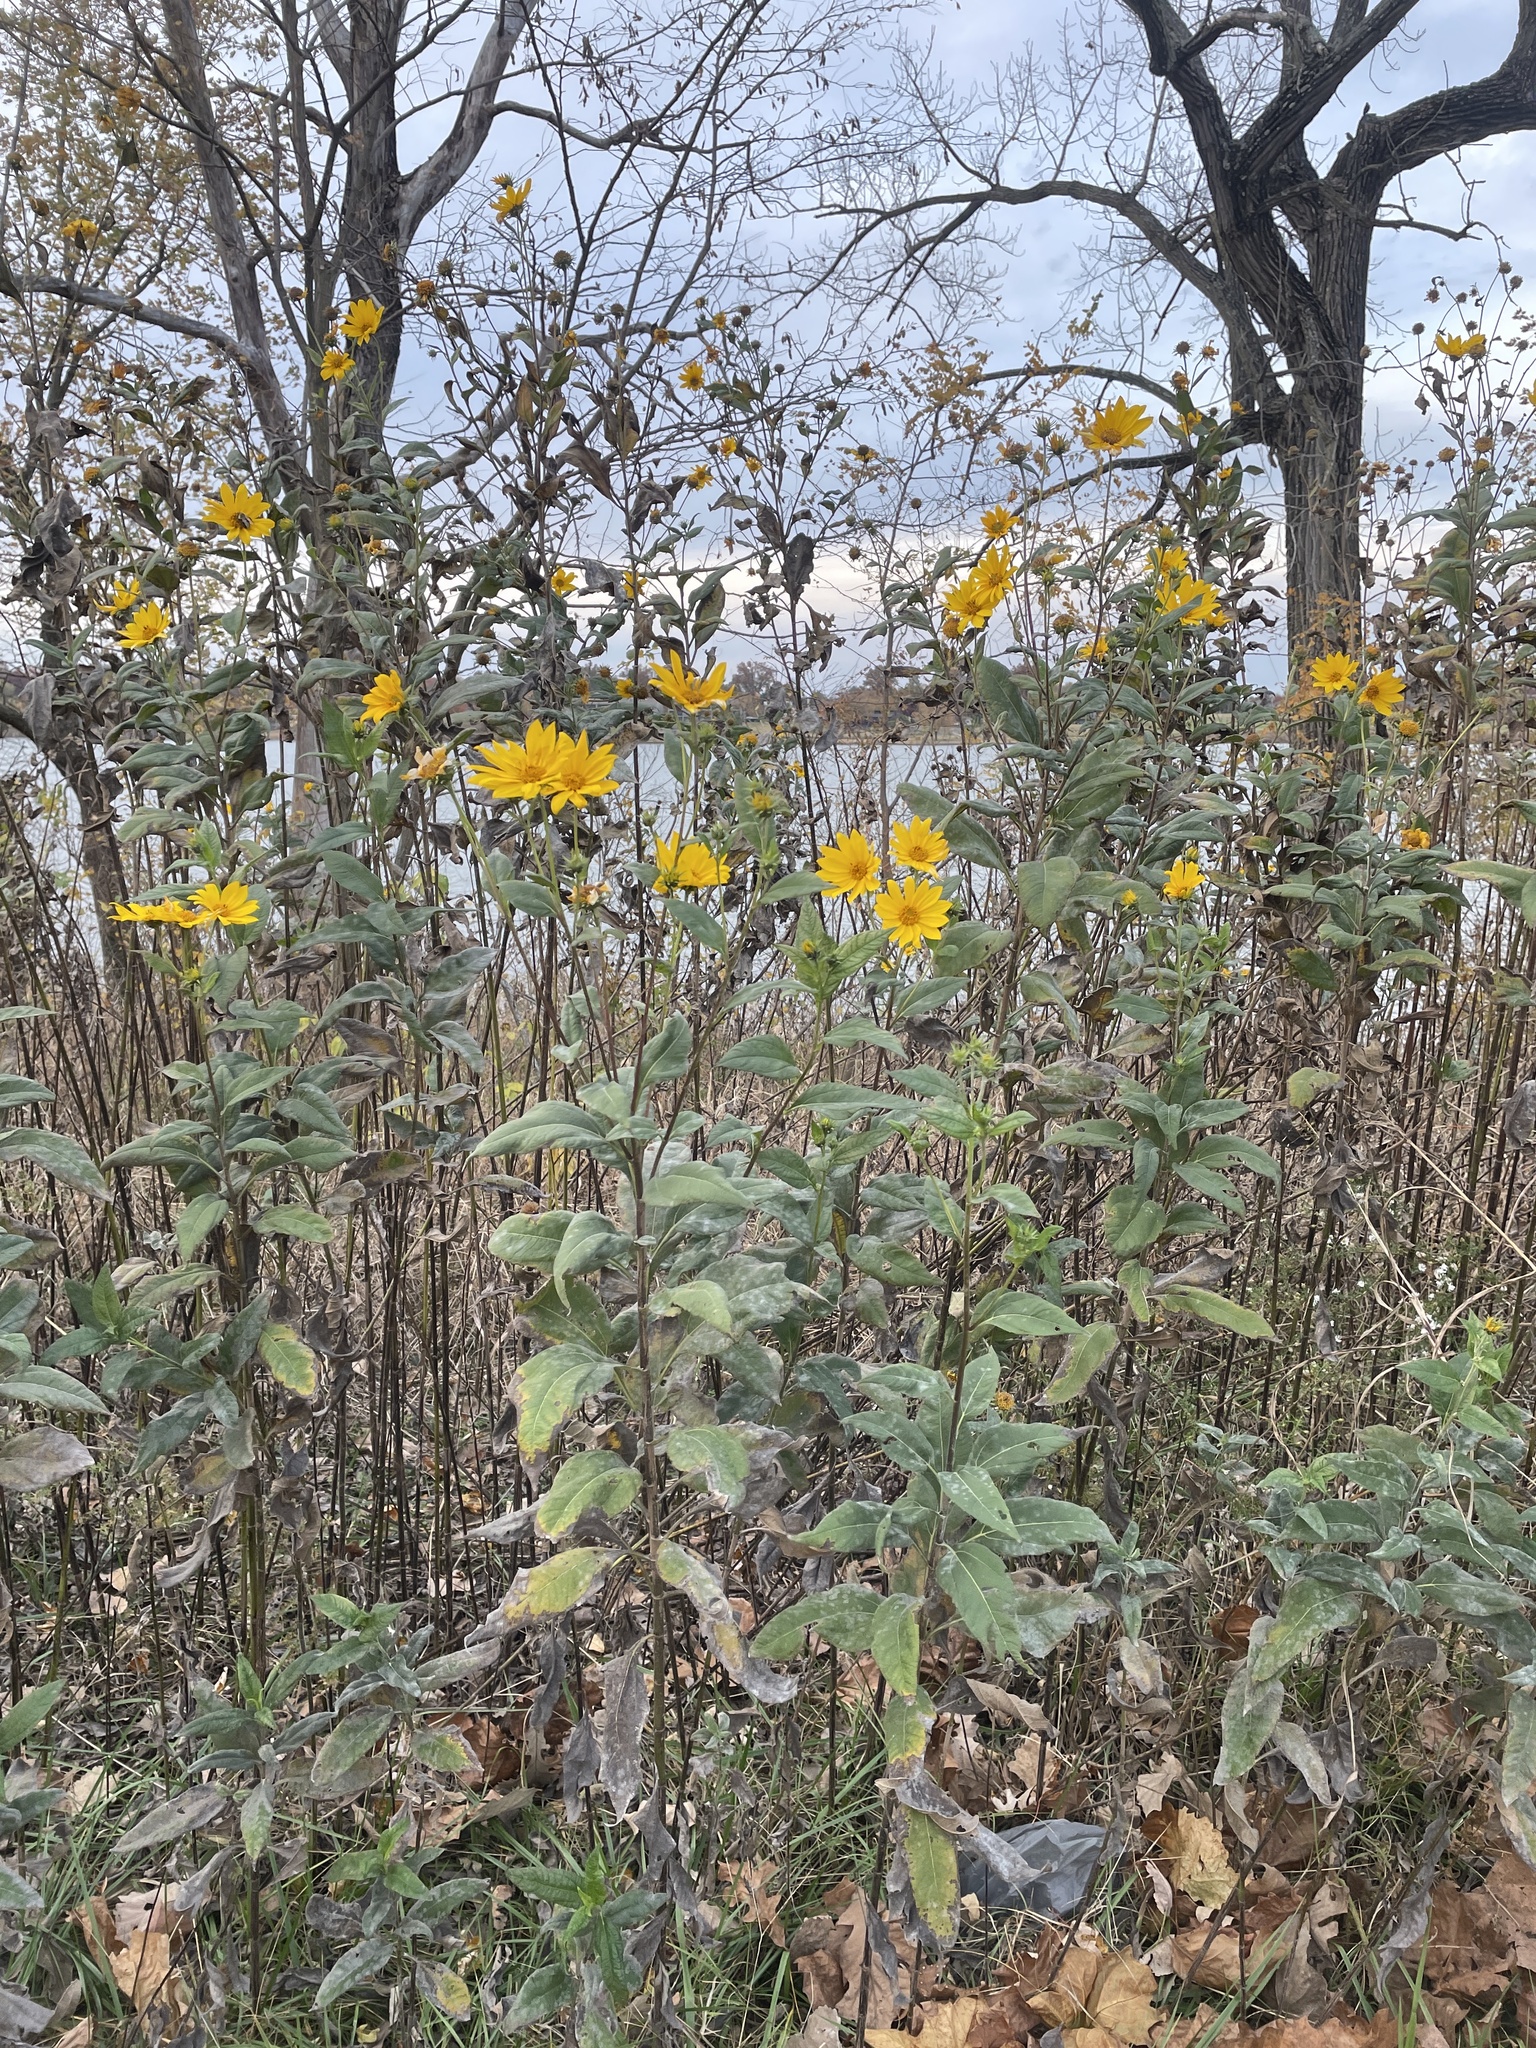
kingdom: Plantae
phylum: Tracheophyta
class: Magnoliopsida
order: Asterales
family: Asteraceae
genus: Helianthus
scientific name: Helianthus tuberosus
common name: Jerusalem artichoke
